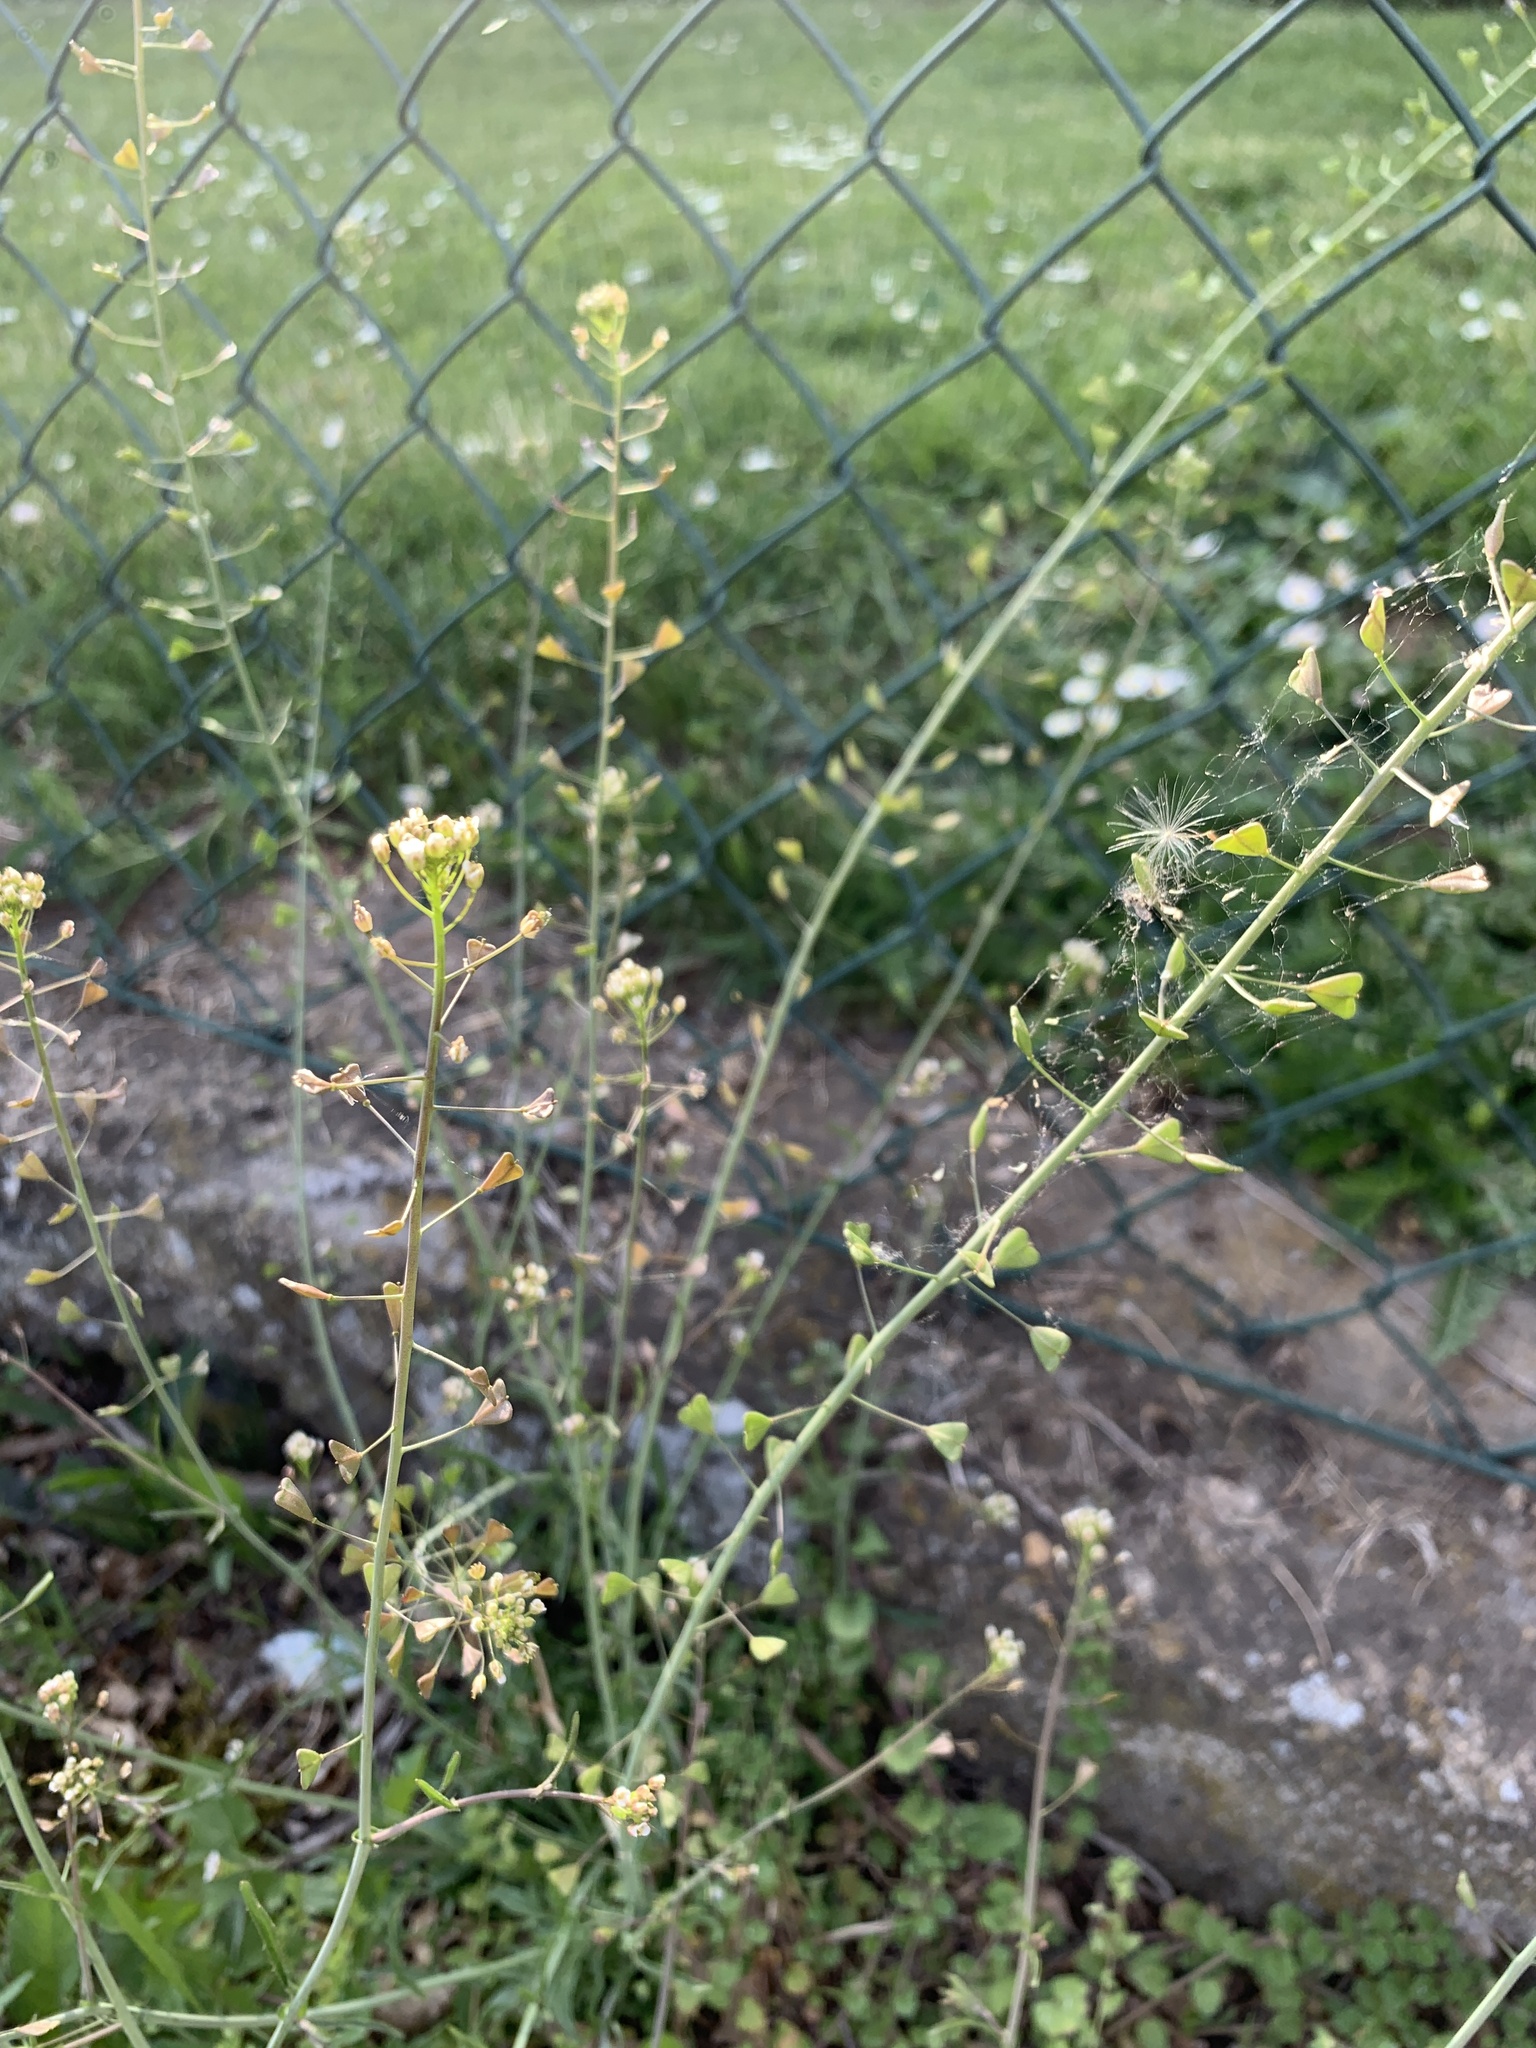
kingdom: Plantae
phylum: Tracheophyta
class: Magnoliopsida
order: Brassicales
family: Brassicaceae
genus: Capsella
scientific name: Capsella bursa-pastoris
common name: Shepherd's purse
